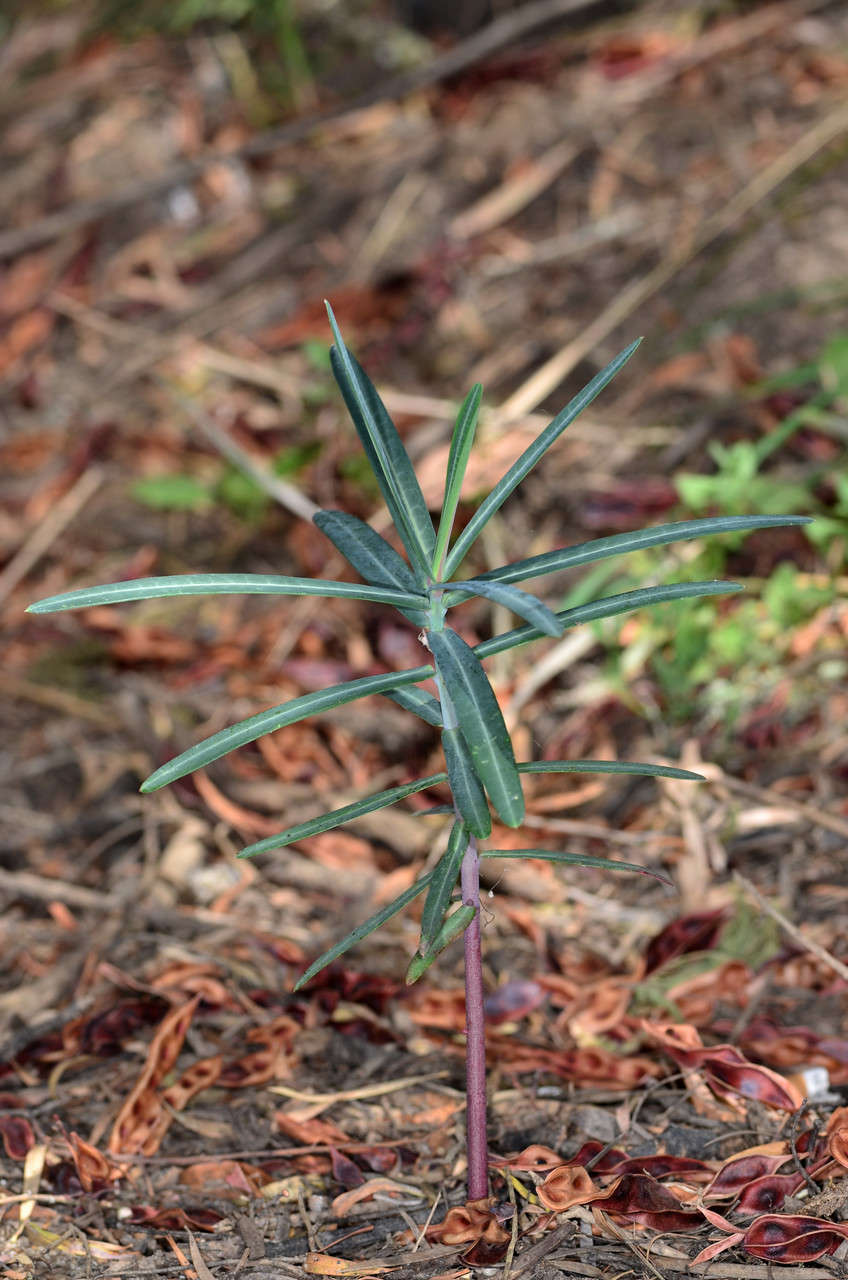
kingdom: Plantae
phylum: Tracheophyta
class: Magnoliopsida
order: Malpighiales
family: Euphorbiaceae
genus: Euphorbia
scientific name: Euphorbia lathyris
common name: Caper spurge
